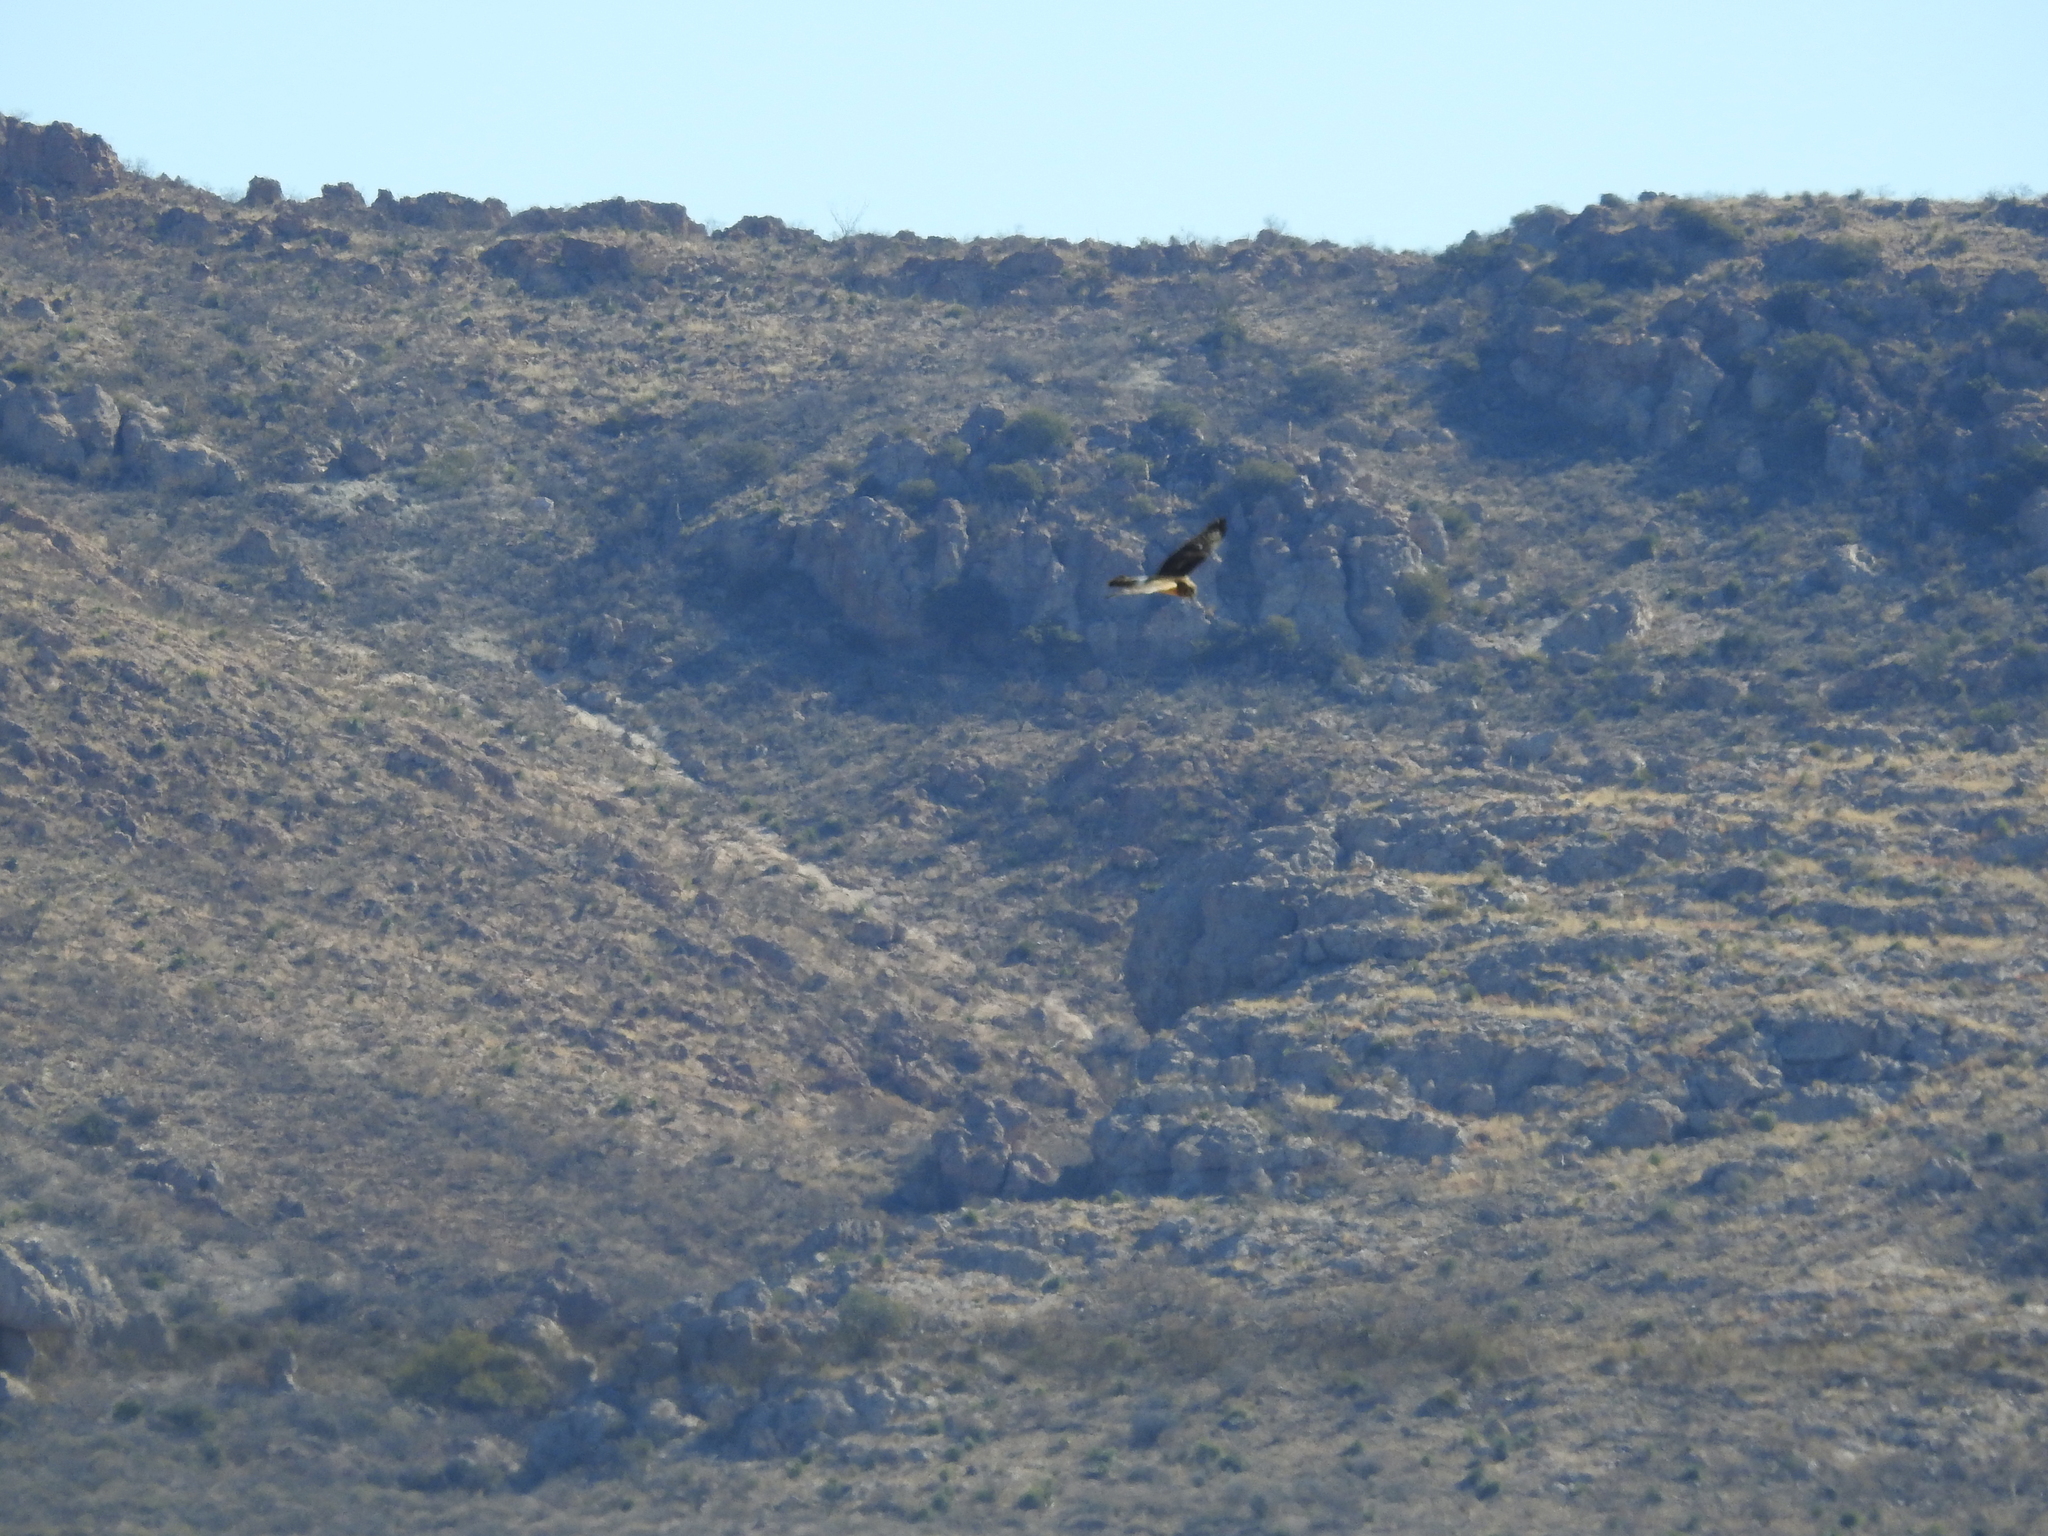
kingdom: Animalia
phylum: Chordata
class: Aves
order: Accipitriformes
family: Accipitridae
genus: Circus
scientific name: Circus cyaneus
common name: Hen harrier
